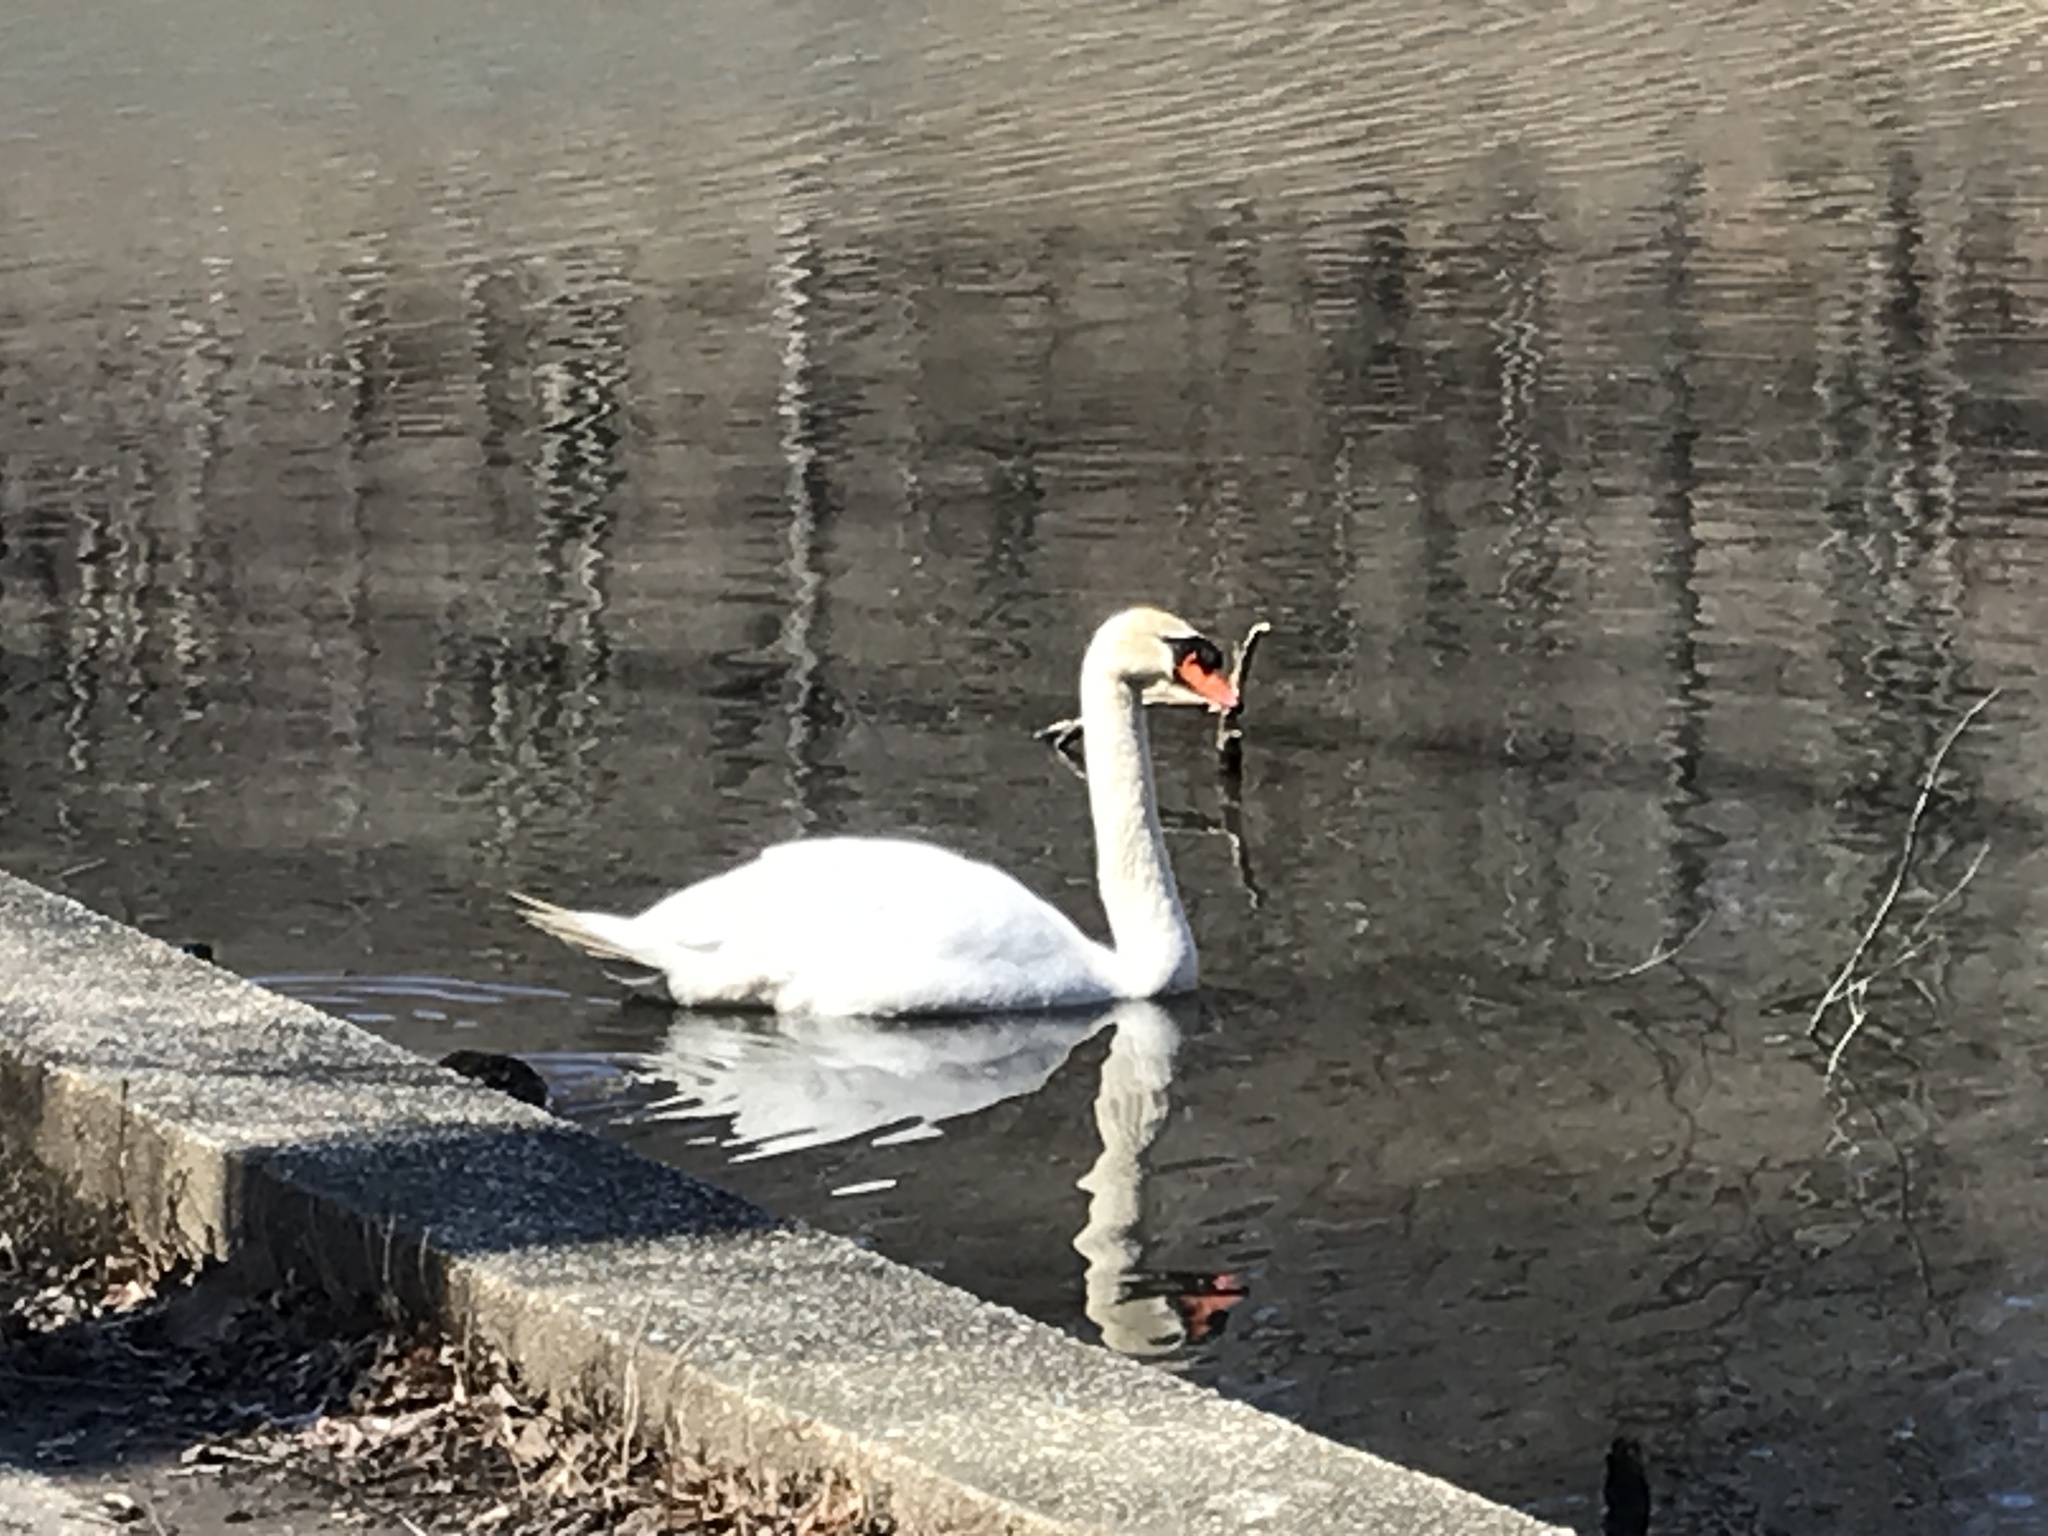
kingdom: Animalia
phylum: Chordata
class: Aves
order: Anseriformes
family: Anatidae
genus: Cygnus
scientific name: Cygnus olor
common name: Mute swan
